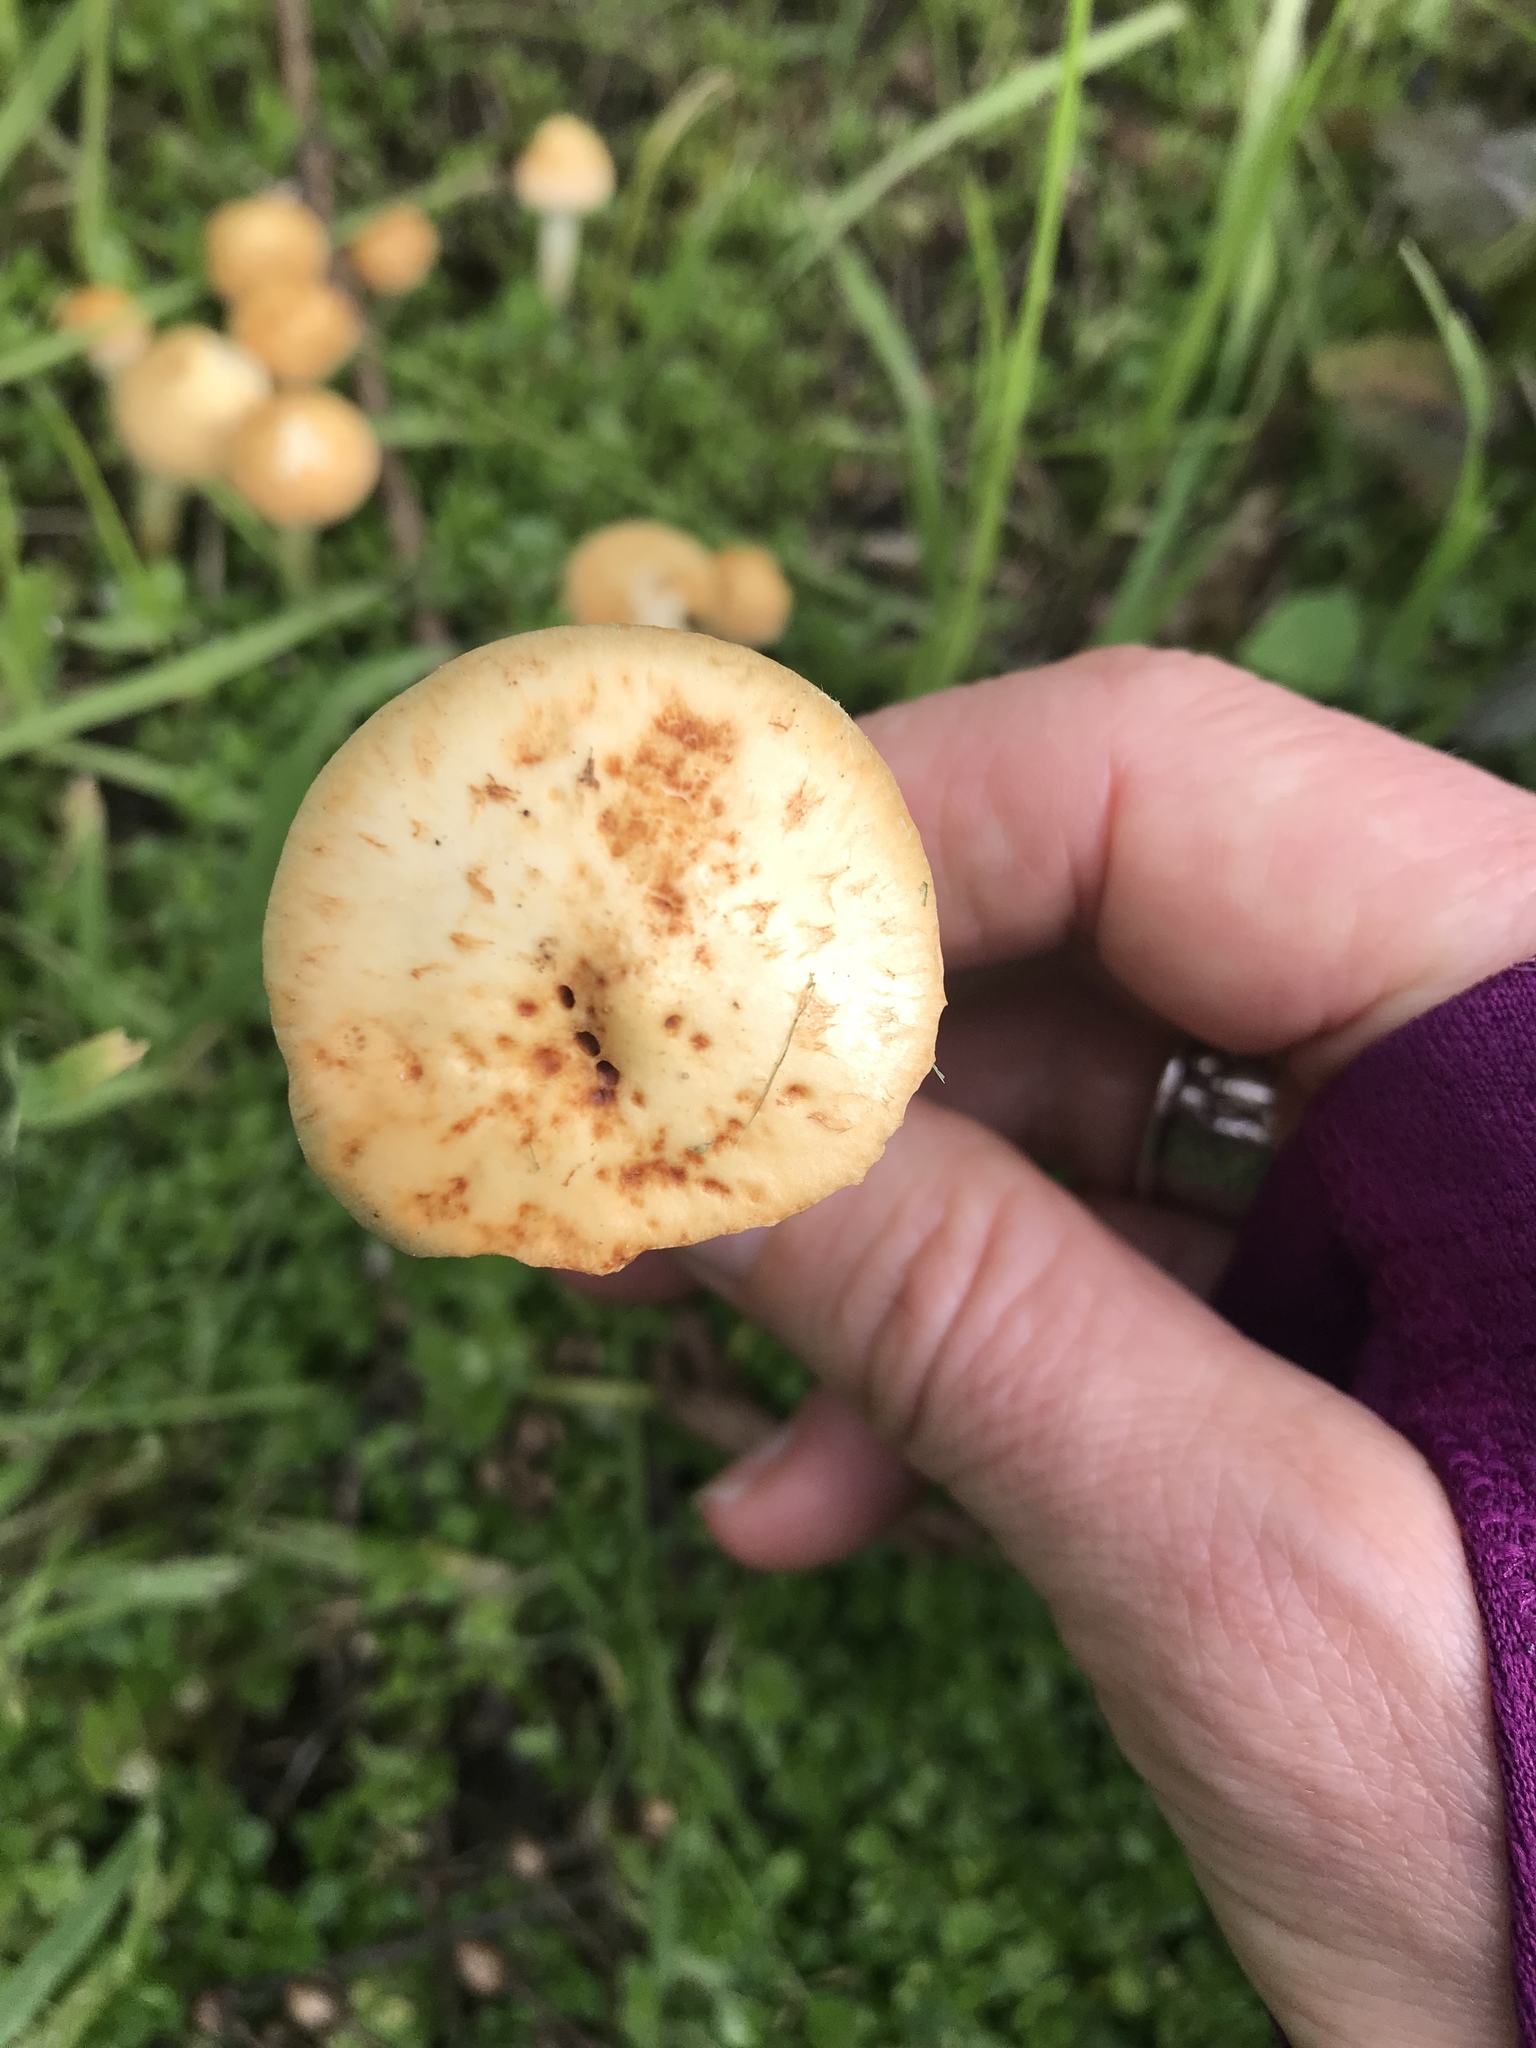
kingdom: Fungi
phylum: Basidiomycota
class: Agaricomycetes
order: Agaricales
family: Strophariaceae
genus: Leratiomyces
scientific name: Leratiomyces percevalii
